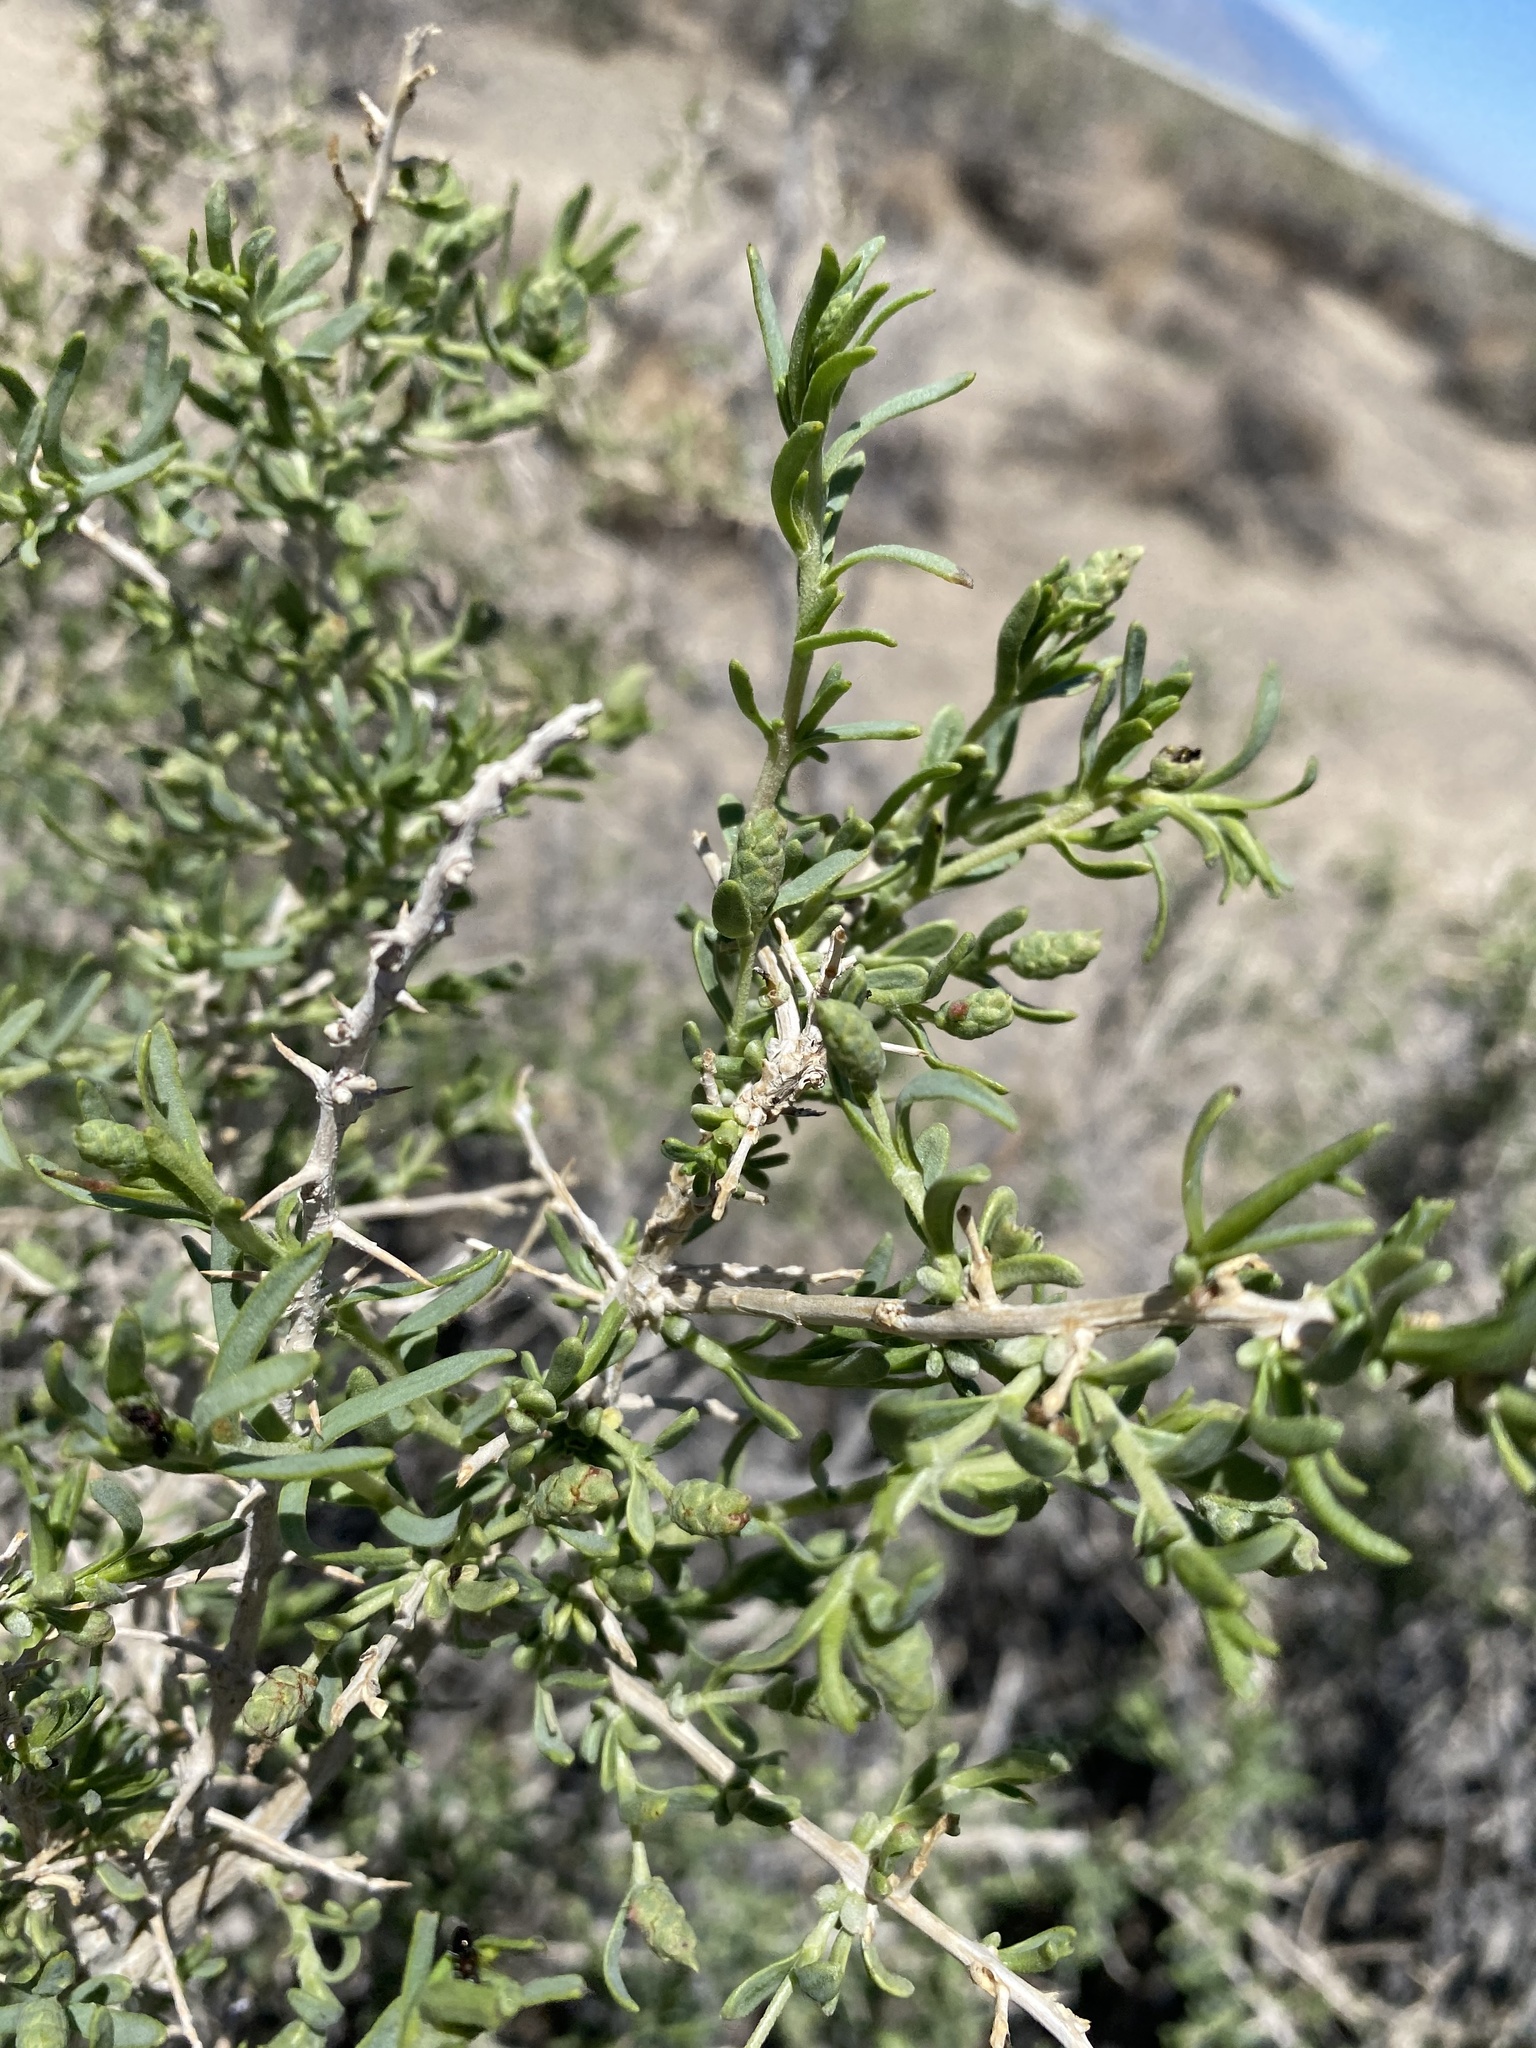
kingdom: Plantae
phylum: Tracheophyta
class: Magnoliopsida
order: Caryophyllales
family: Sarcobataceae
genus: Sarcobatus
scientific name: Sarcobatus vermiculatus
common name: Greasewood
